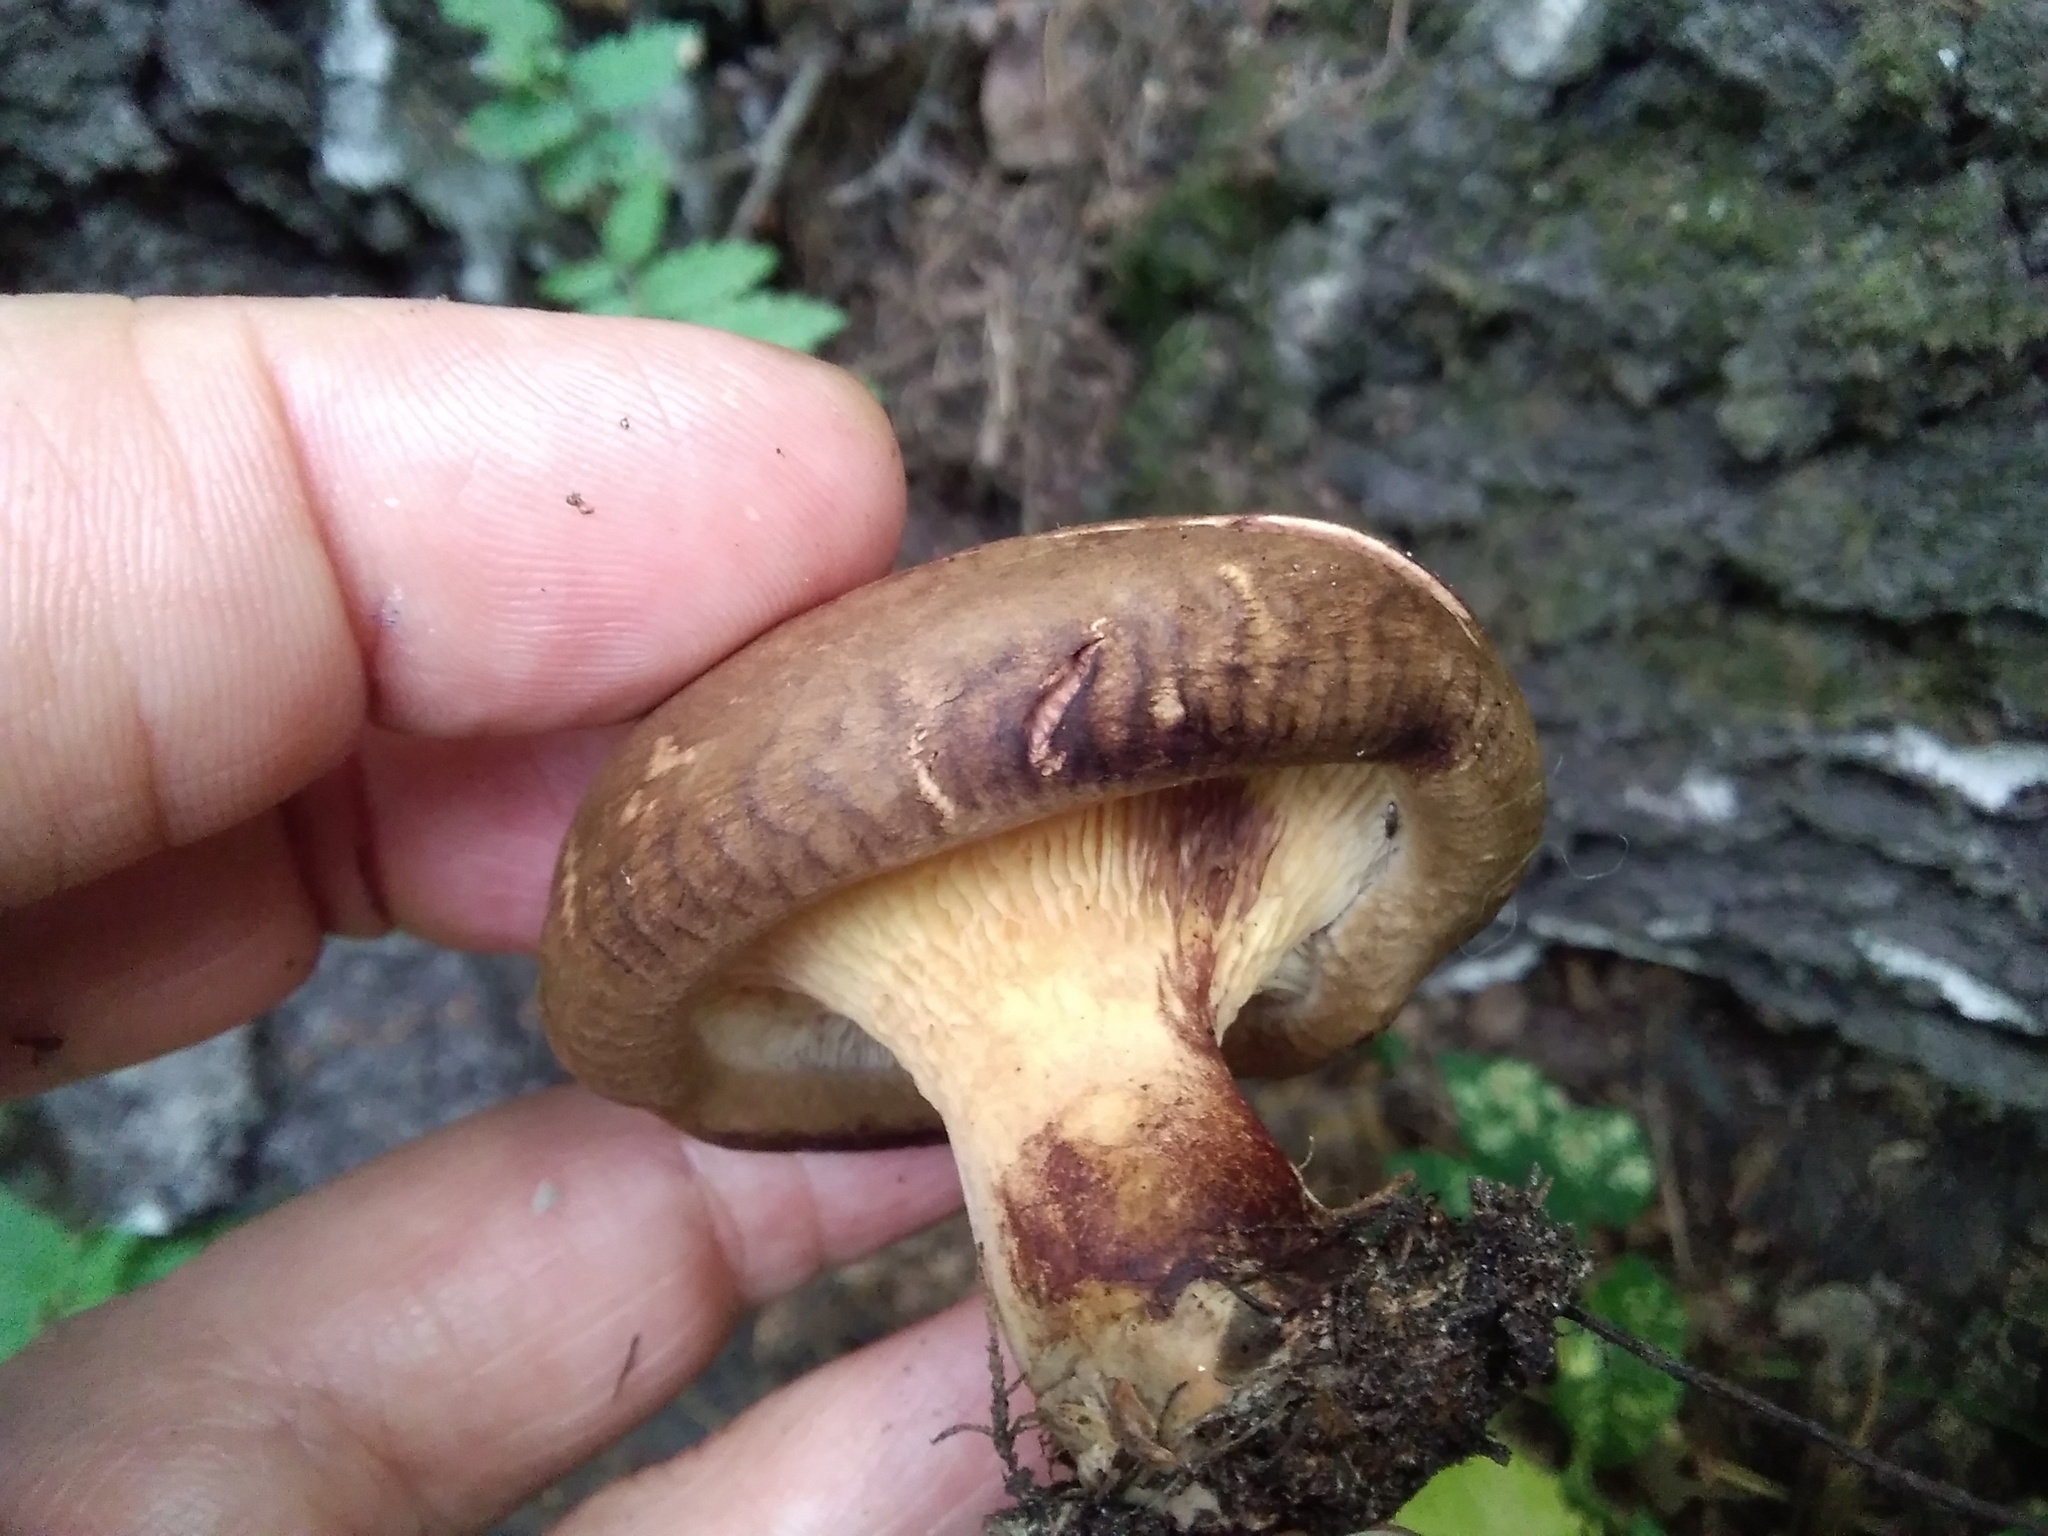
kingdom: Fungi
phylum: Basidiomycota
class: Agaricomycetes
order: Boletales
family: Paxillaceae
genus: Paxillus
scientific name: Paxillus involutus
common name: Brown roll rim
